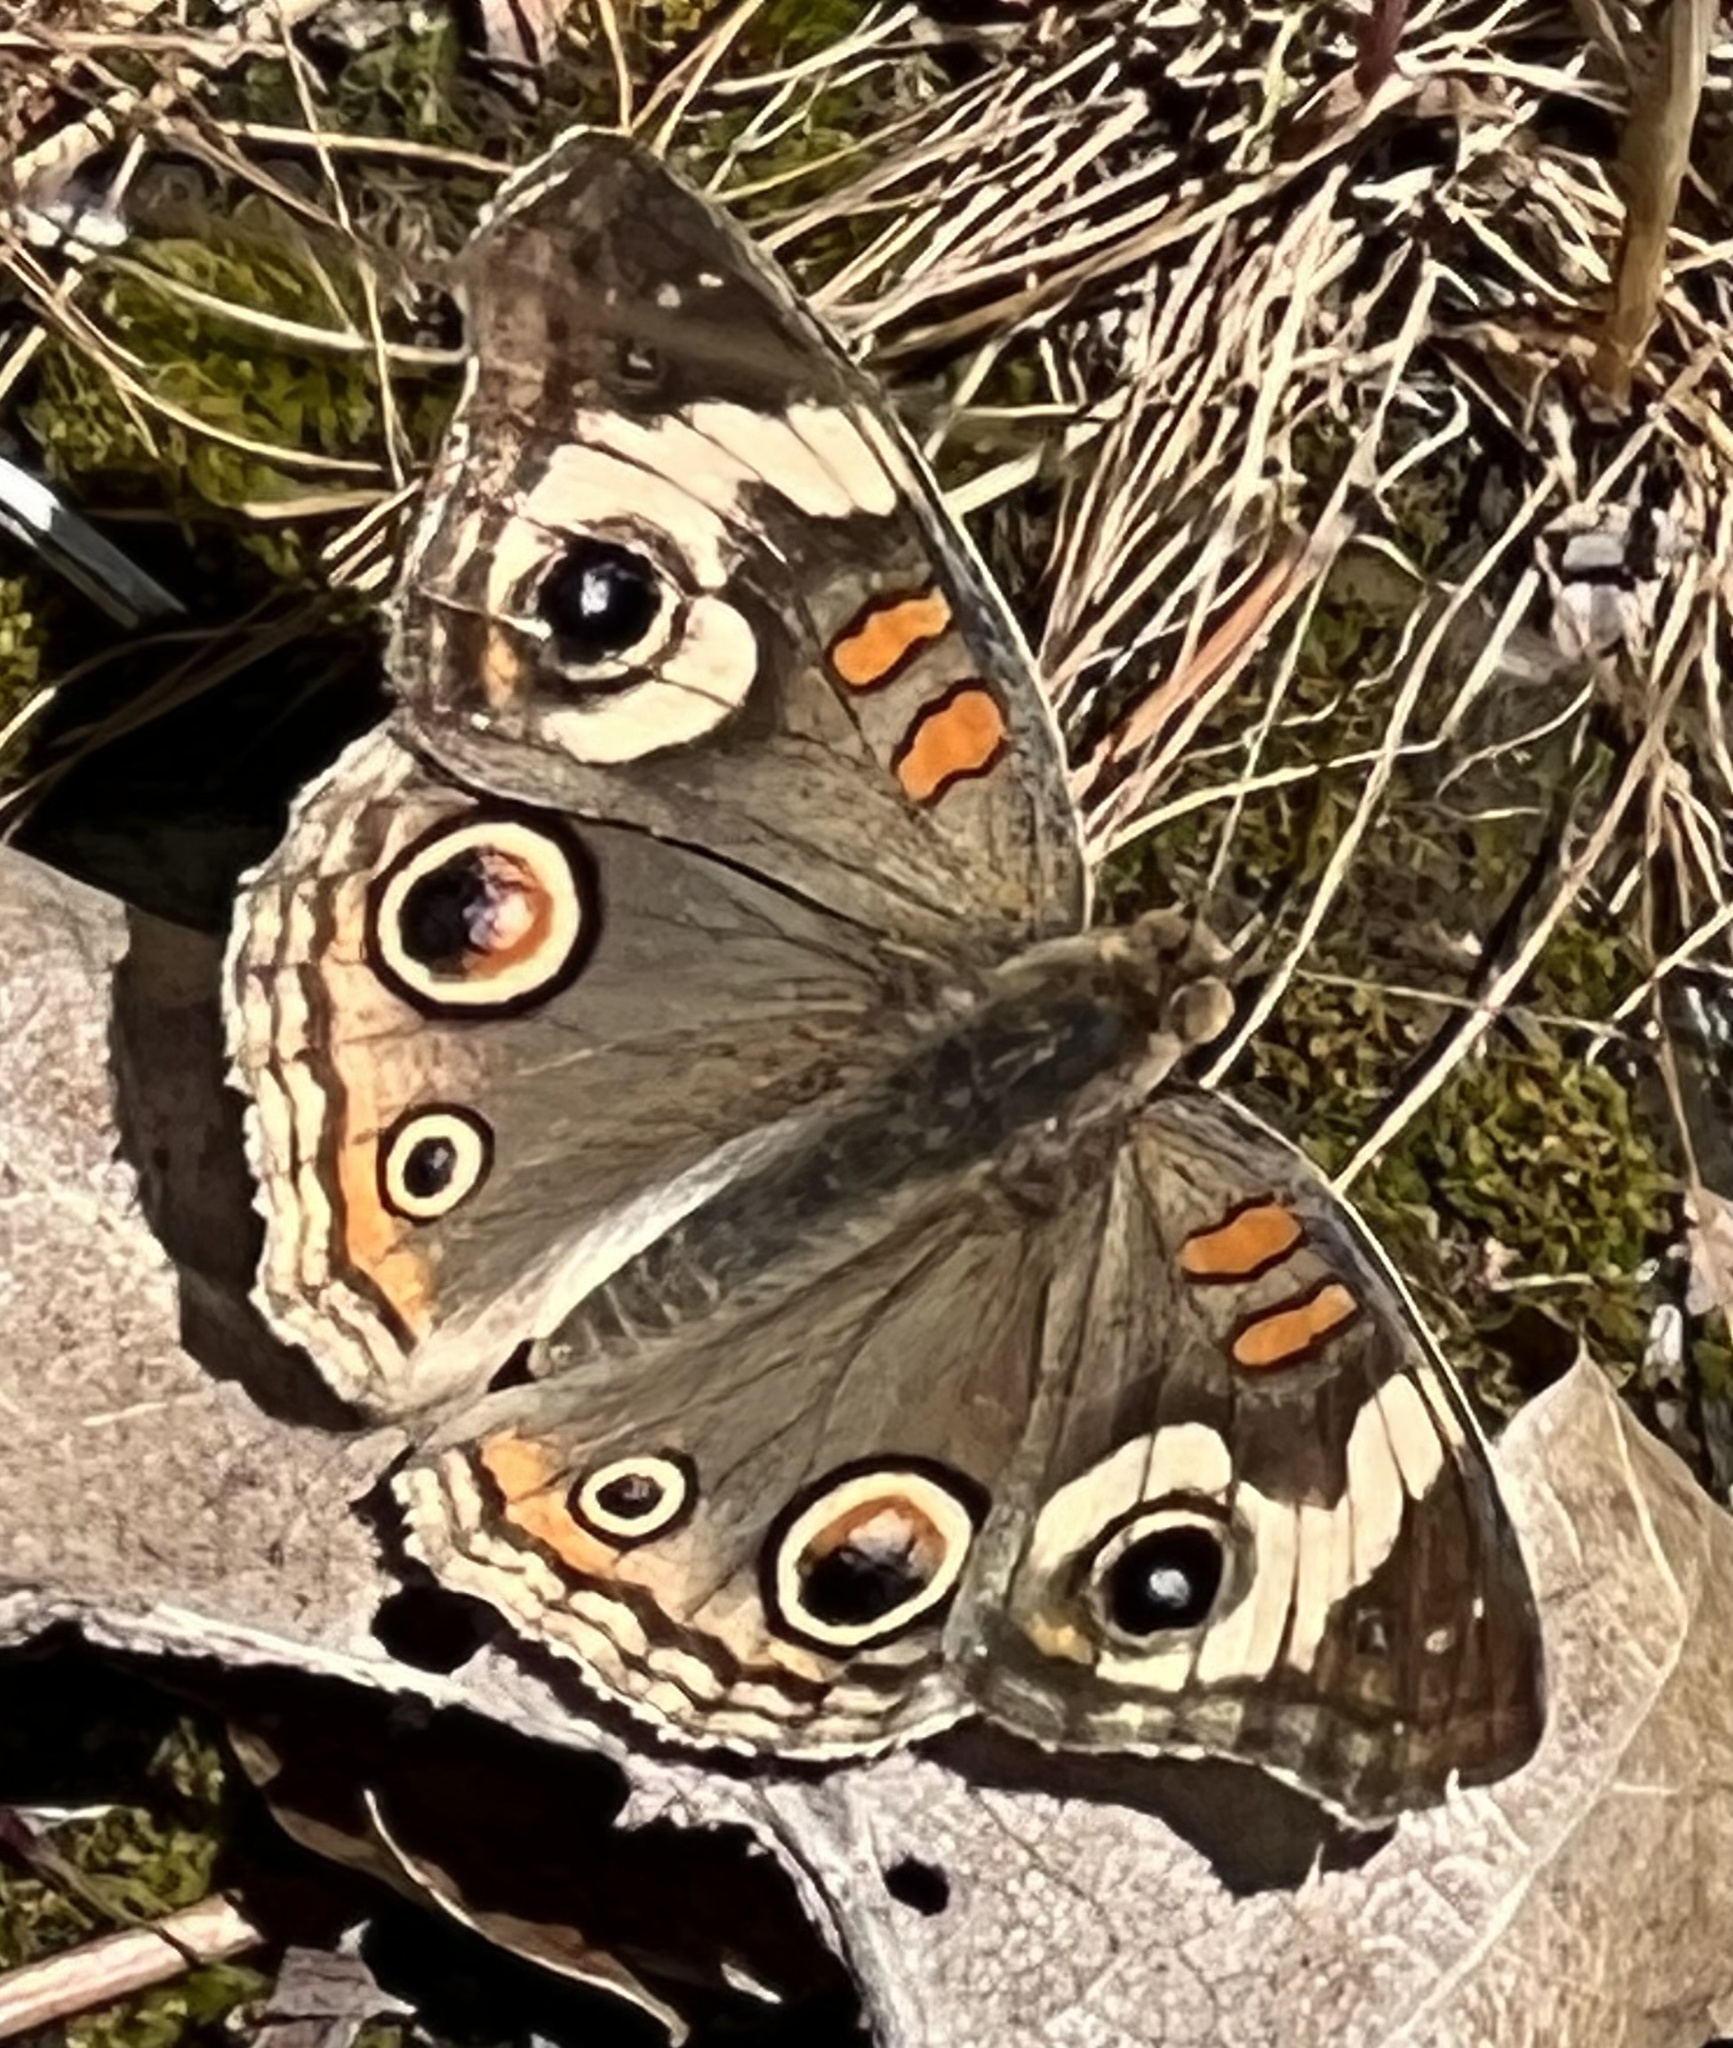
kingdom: Animalia
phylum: Arthropoda
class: Insecta
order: Lepidoptera
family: Nymphalidae
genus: Junonia
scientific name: Junonia grisea
